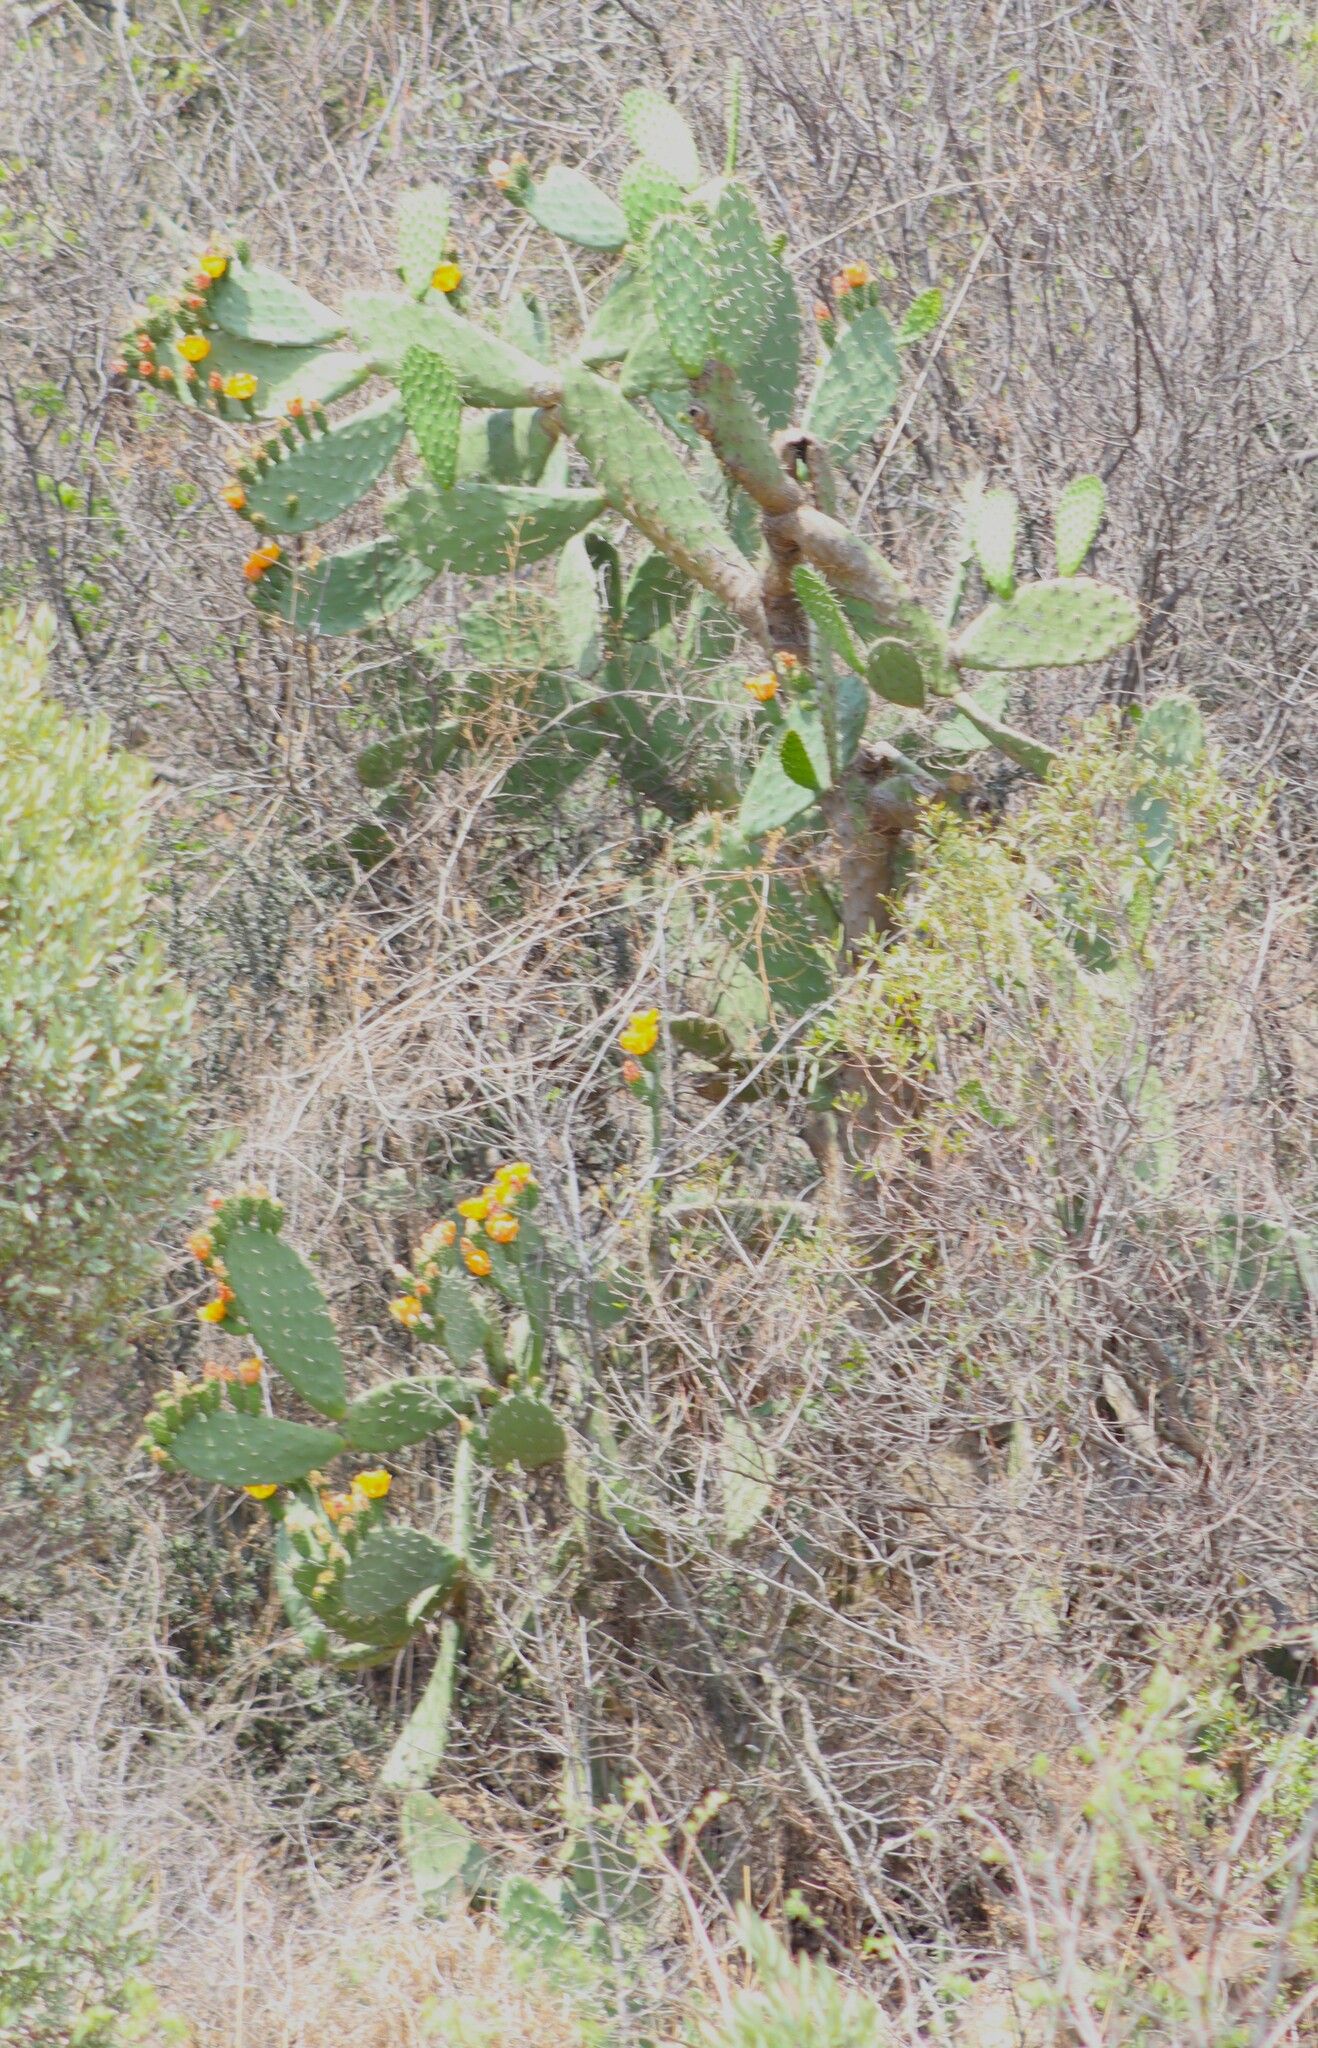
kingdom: Plantae
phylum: Tracheophyta
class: Magnoliopsida
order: Caryophyllales
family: Cactaceae
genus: Opuntia
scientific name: Opuntia ficus-indica
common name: Barbary fig
